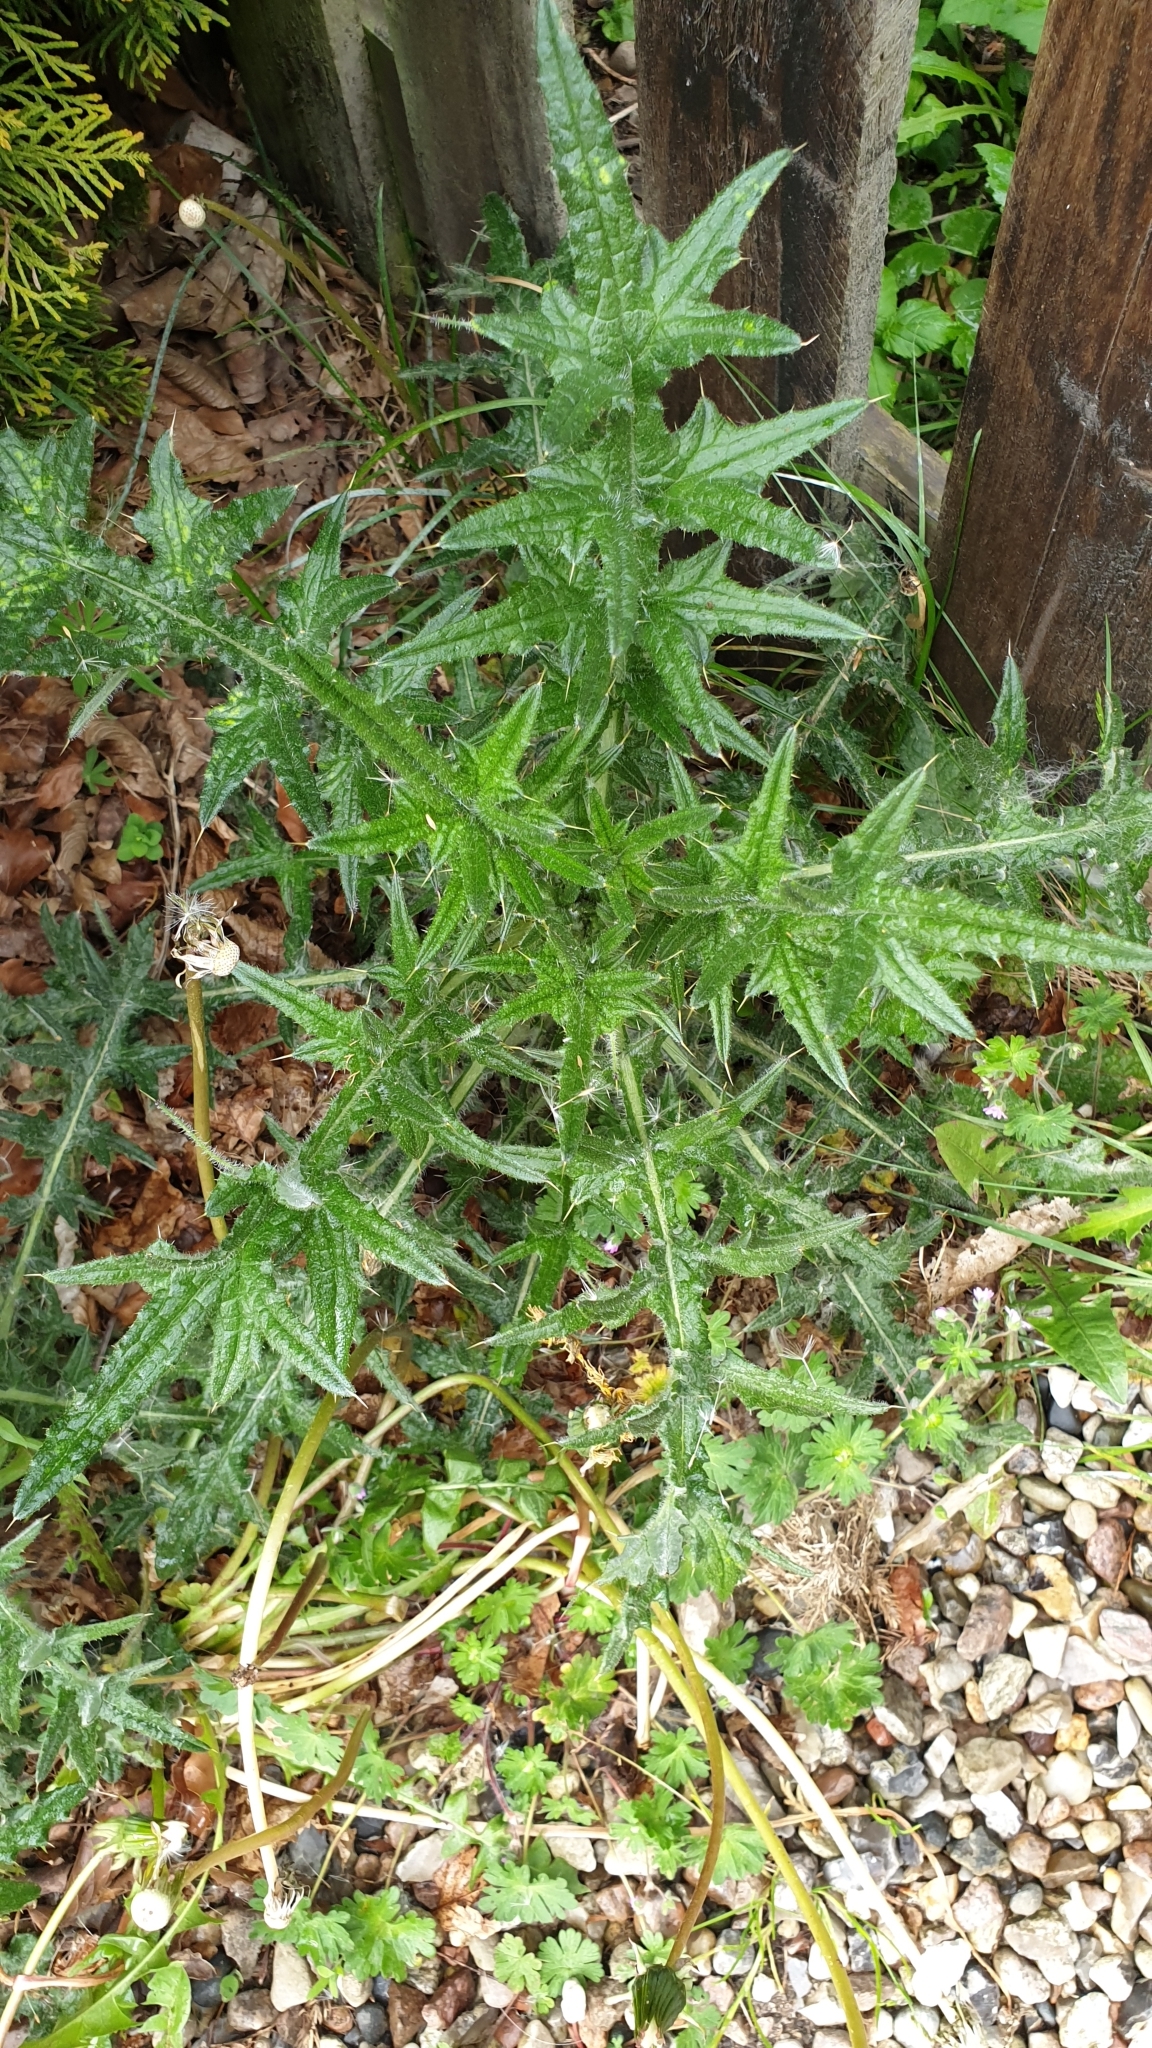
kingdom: Plantae
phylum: Tracheophyta
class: Magnoliopsida
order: Asterales
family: Asteraceae
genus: Cirsium
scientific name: Cirsium vulgare
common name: Bull thistle
